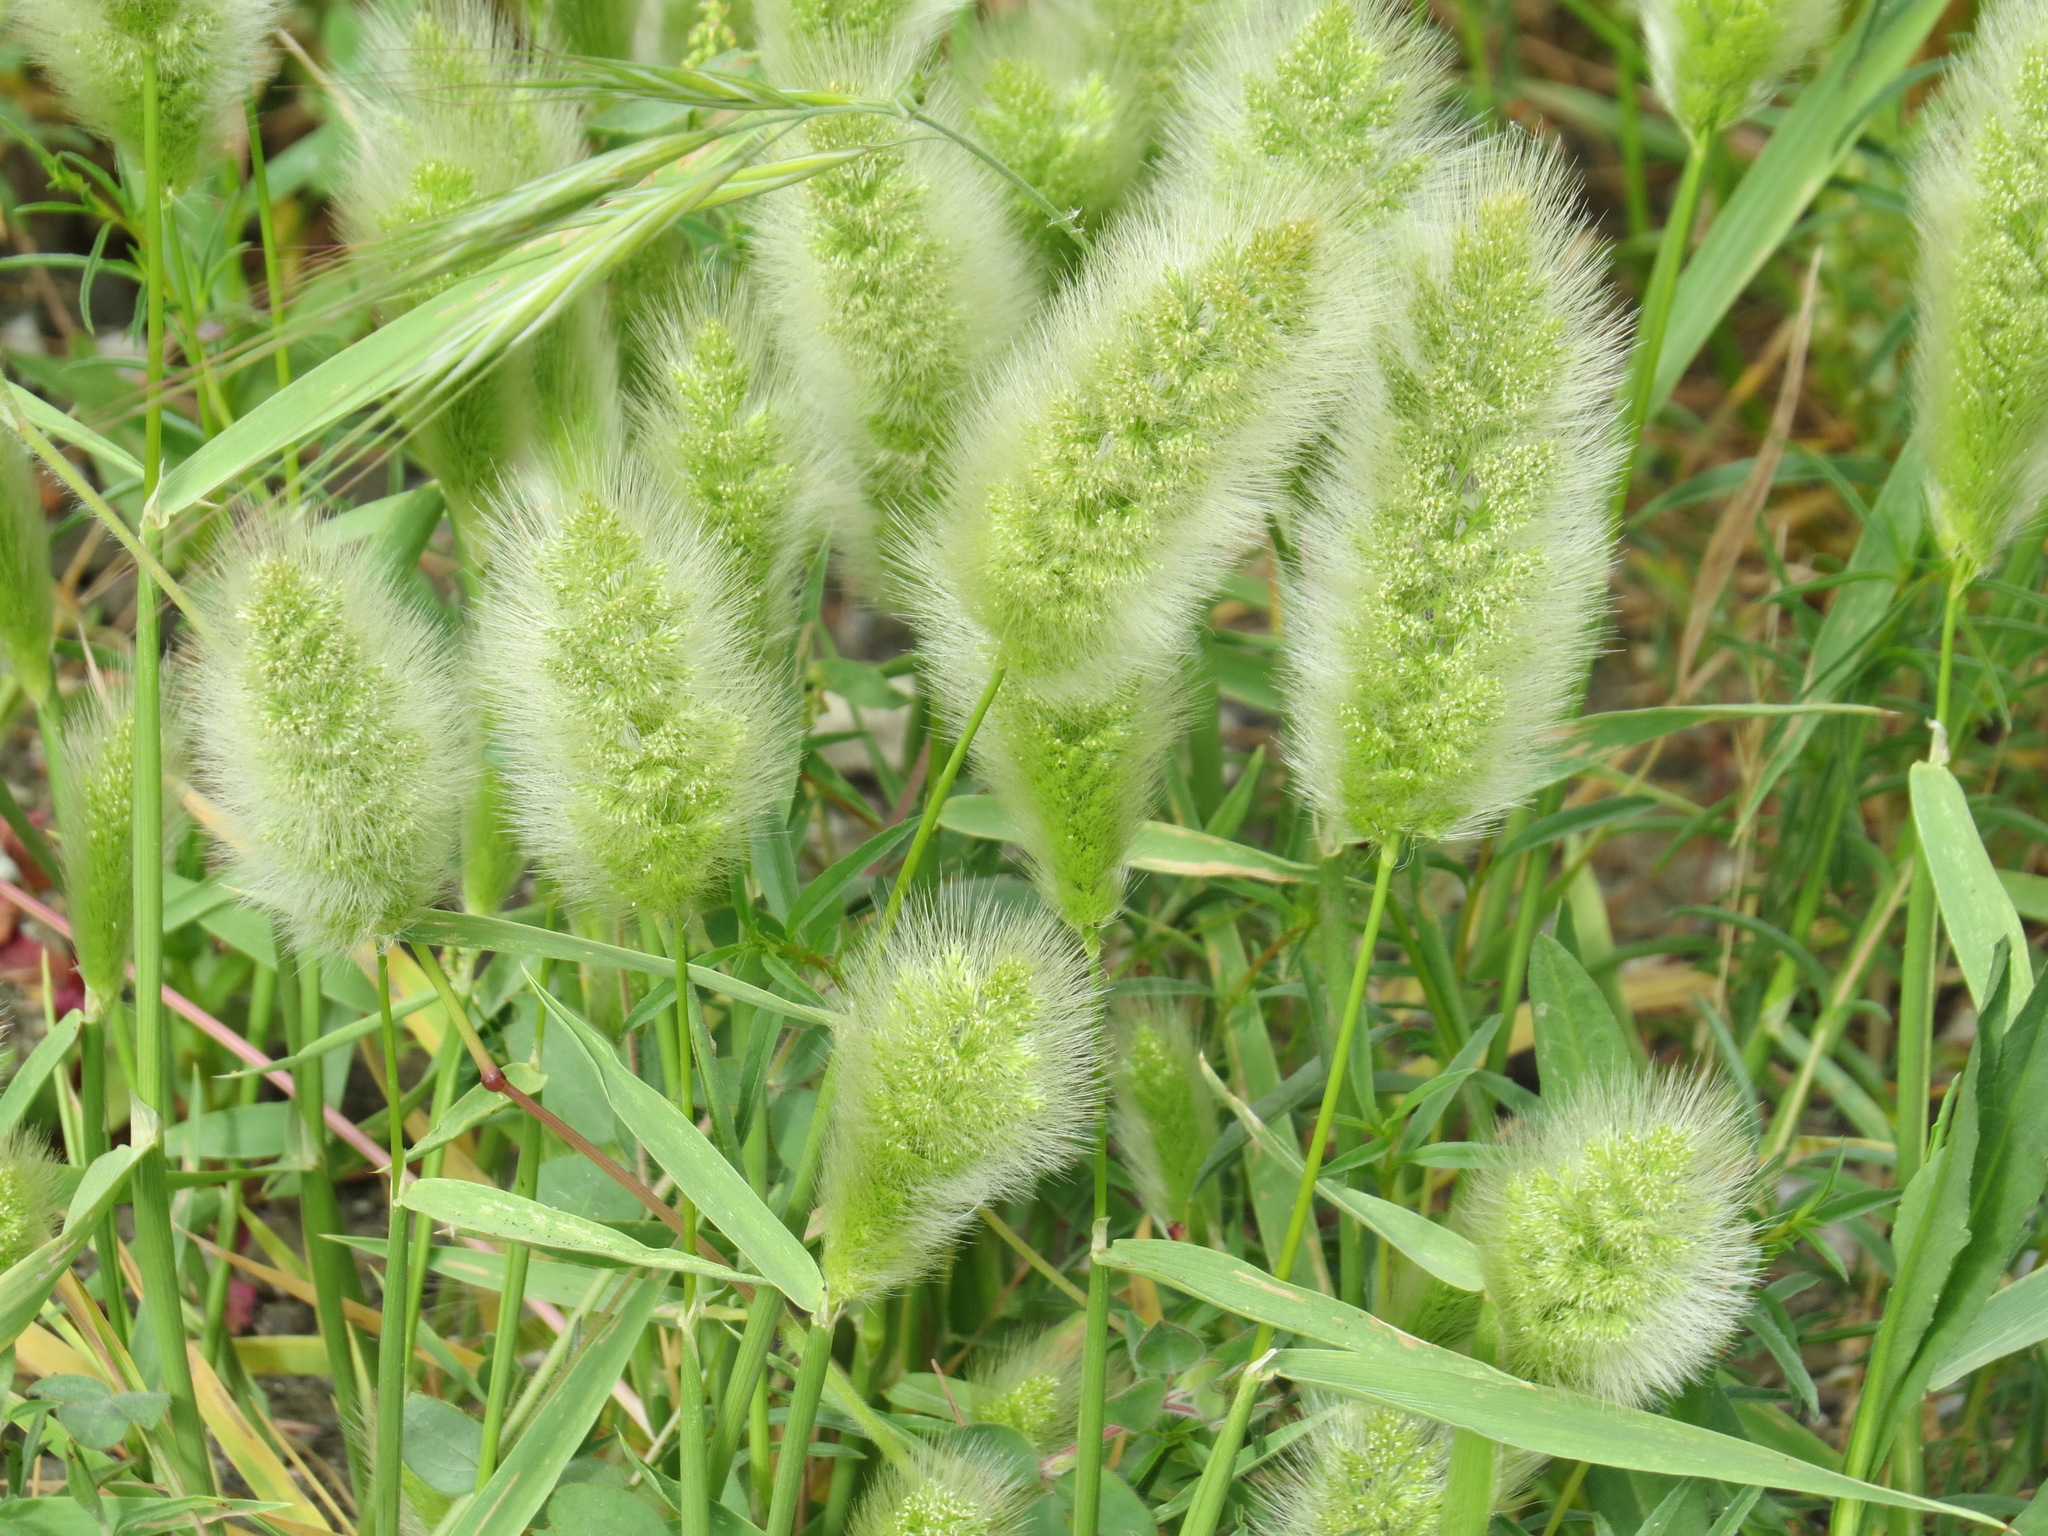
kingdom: Plantae
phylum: Tracheophyta
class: Liliopsida
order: Poales
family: Poaceae
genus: Polypogon
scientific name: Polypogon monspeliensis
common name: Annual rabbitsfoot grass
